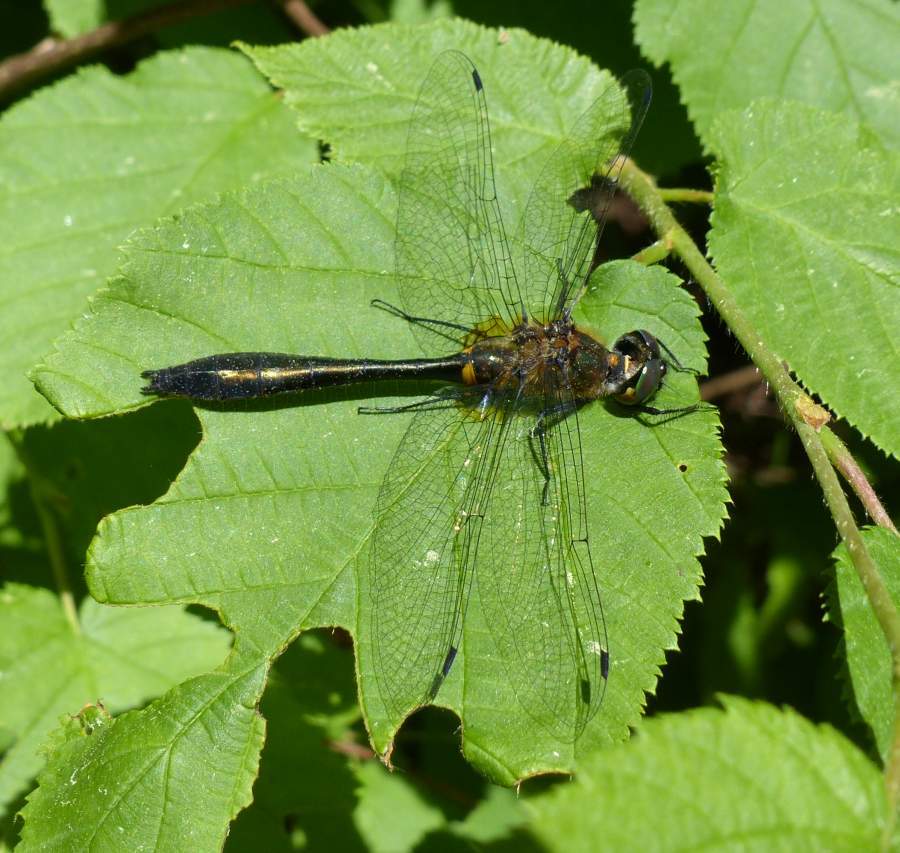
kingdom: Animalia
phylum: Arthropoda
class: Insecta
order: Odonata
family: Corduliidae
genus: Dorocordulia
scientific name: Dorocordulia libera
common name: Racket-tailed emerald
